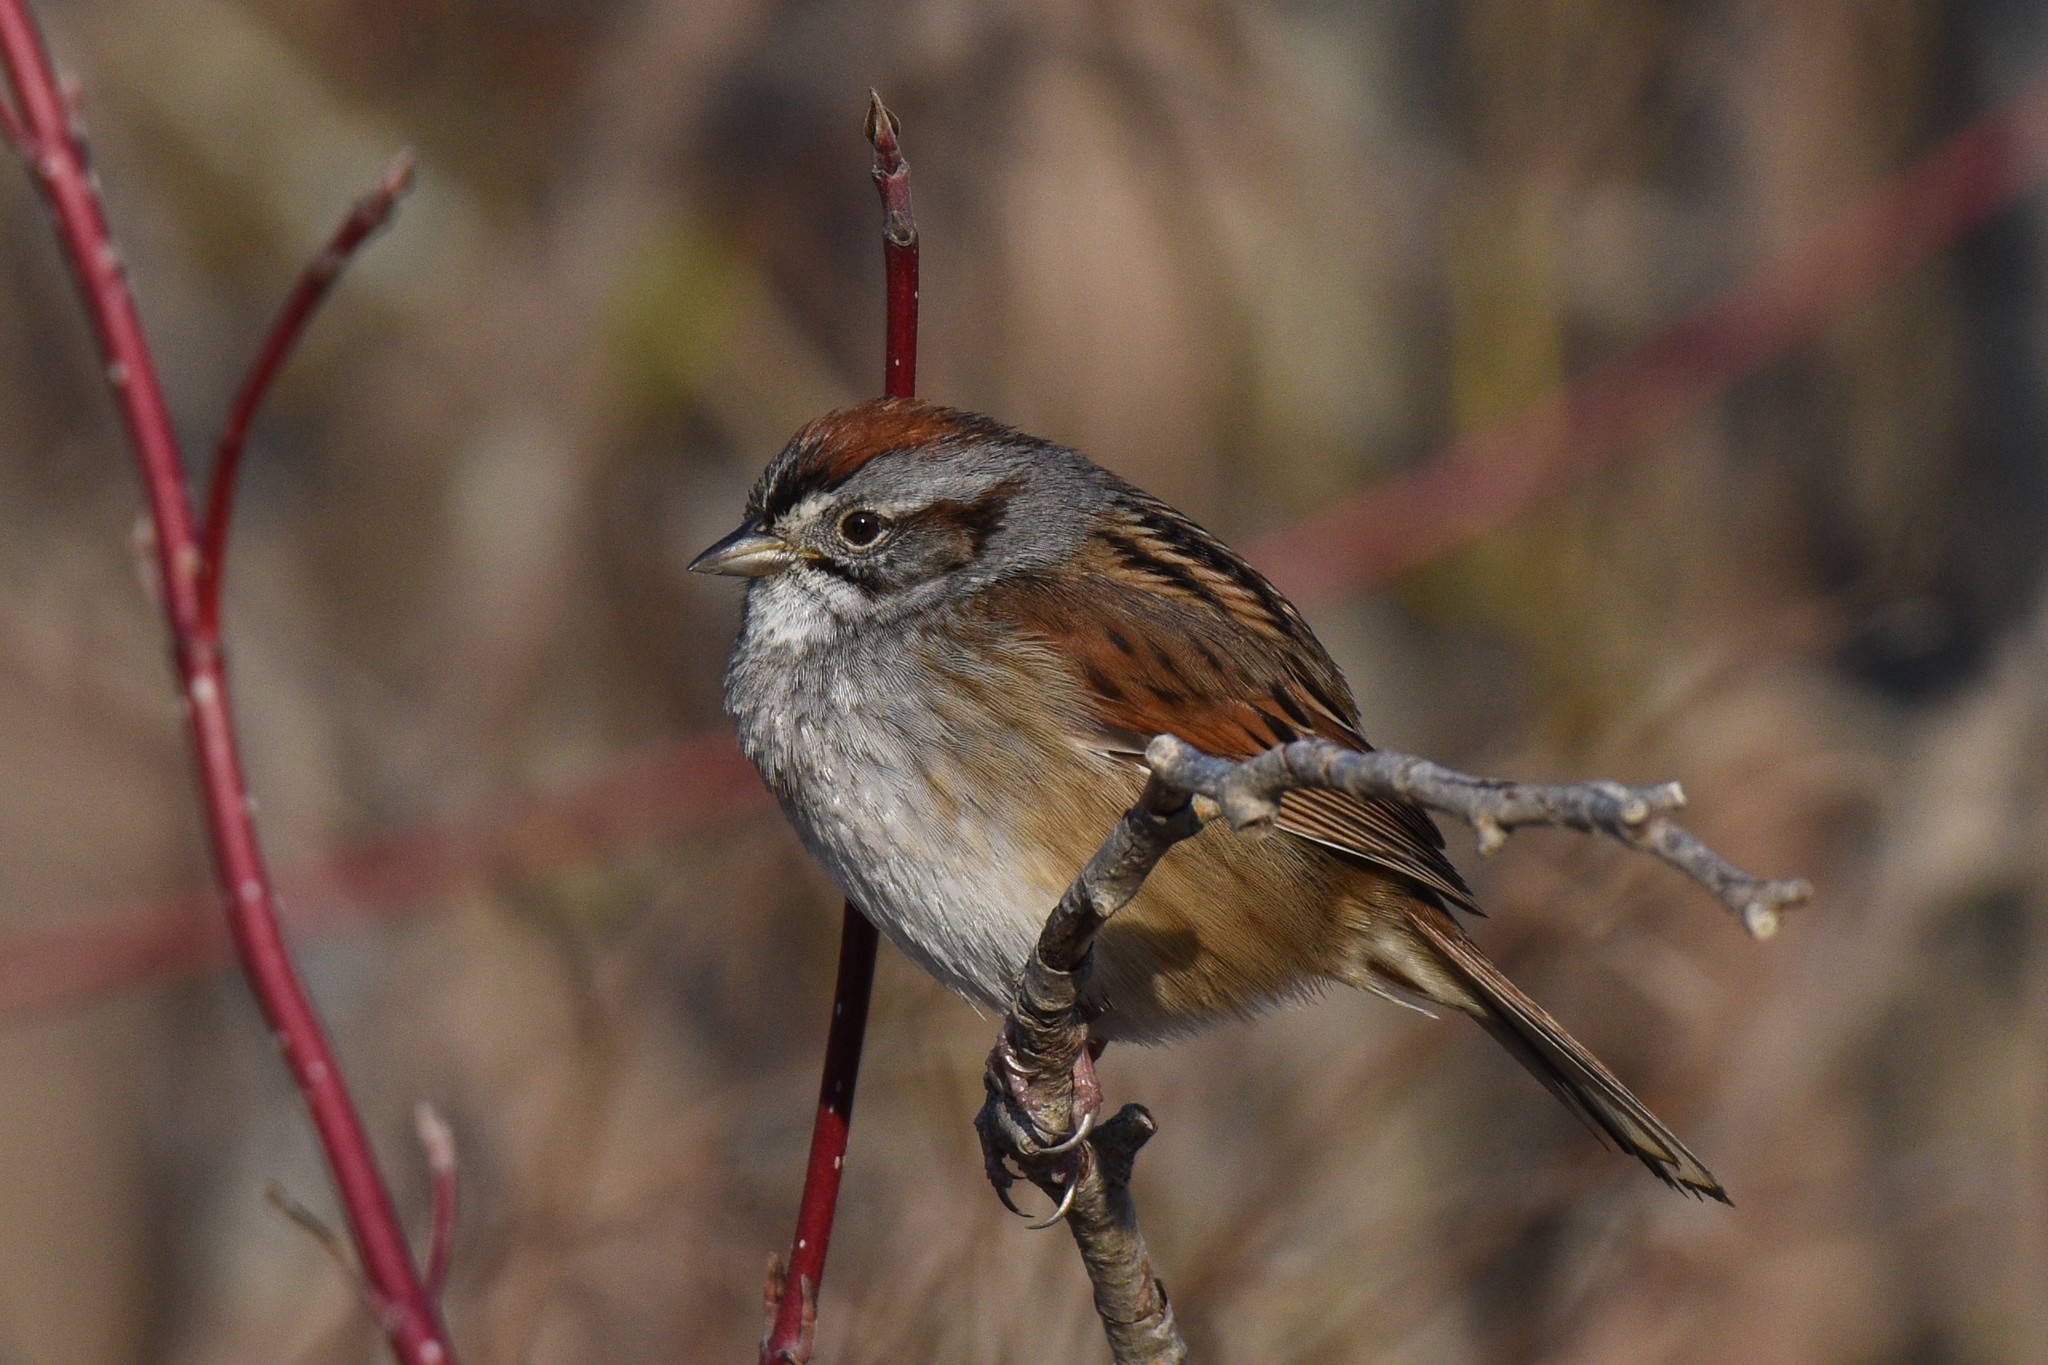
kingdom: Animalia
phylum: Chordata
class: Aves
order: Passeriformes
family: Passerellidae
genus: Melospiza
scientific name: Melospiza georgiana
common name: Swamp sparrow
